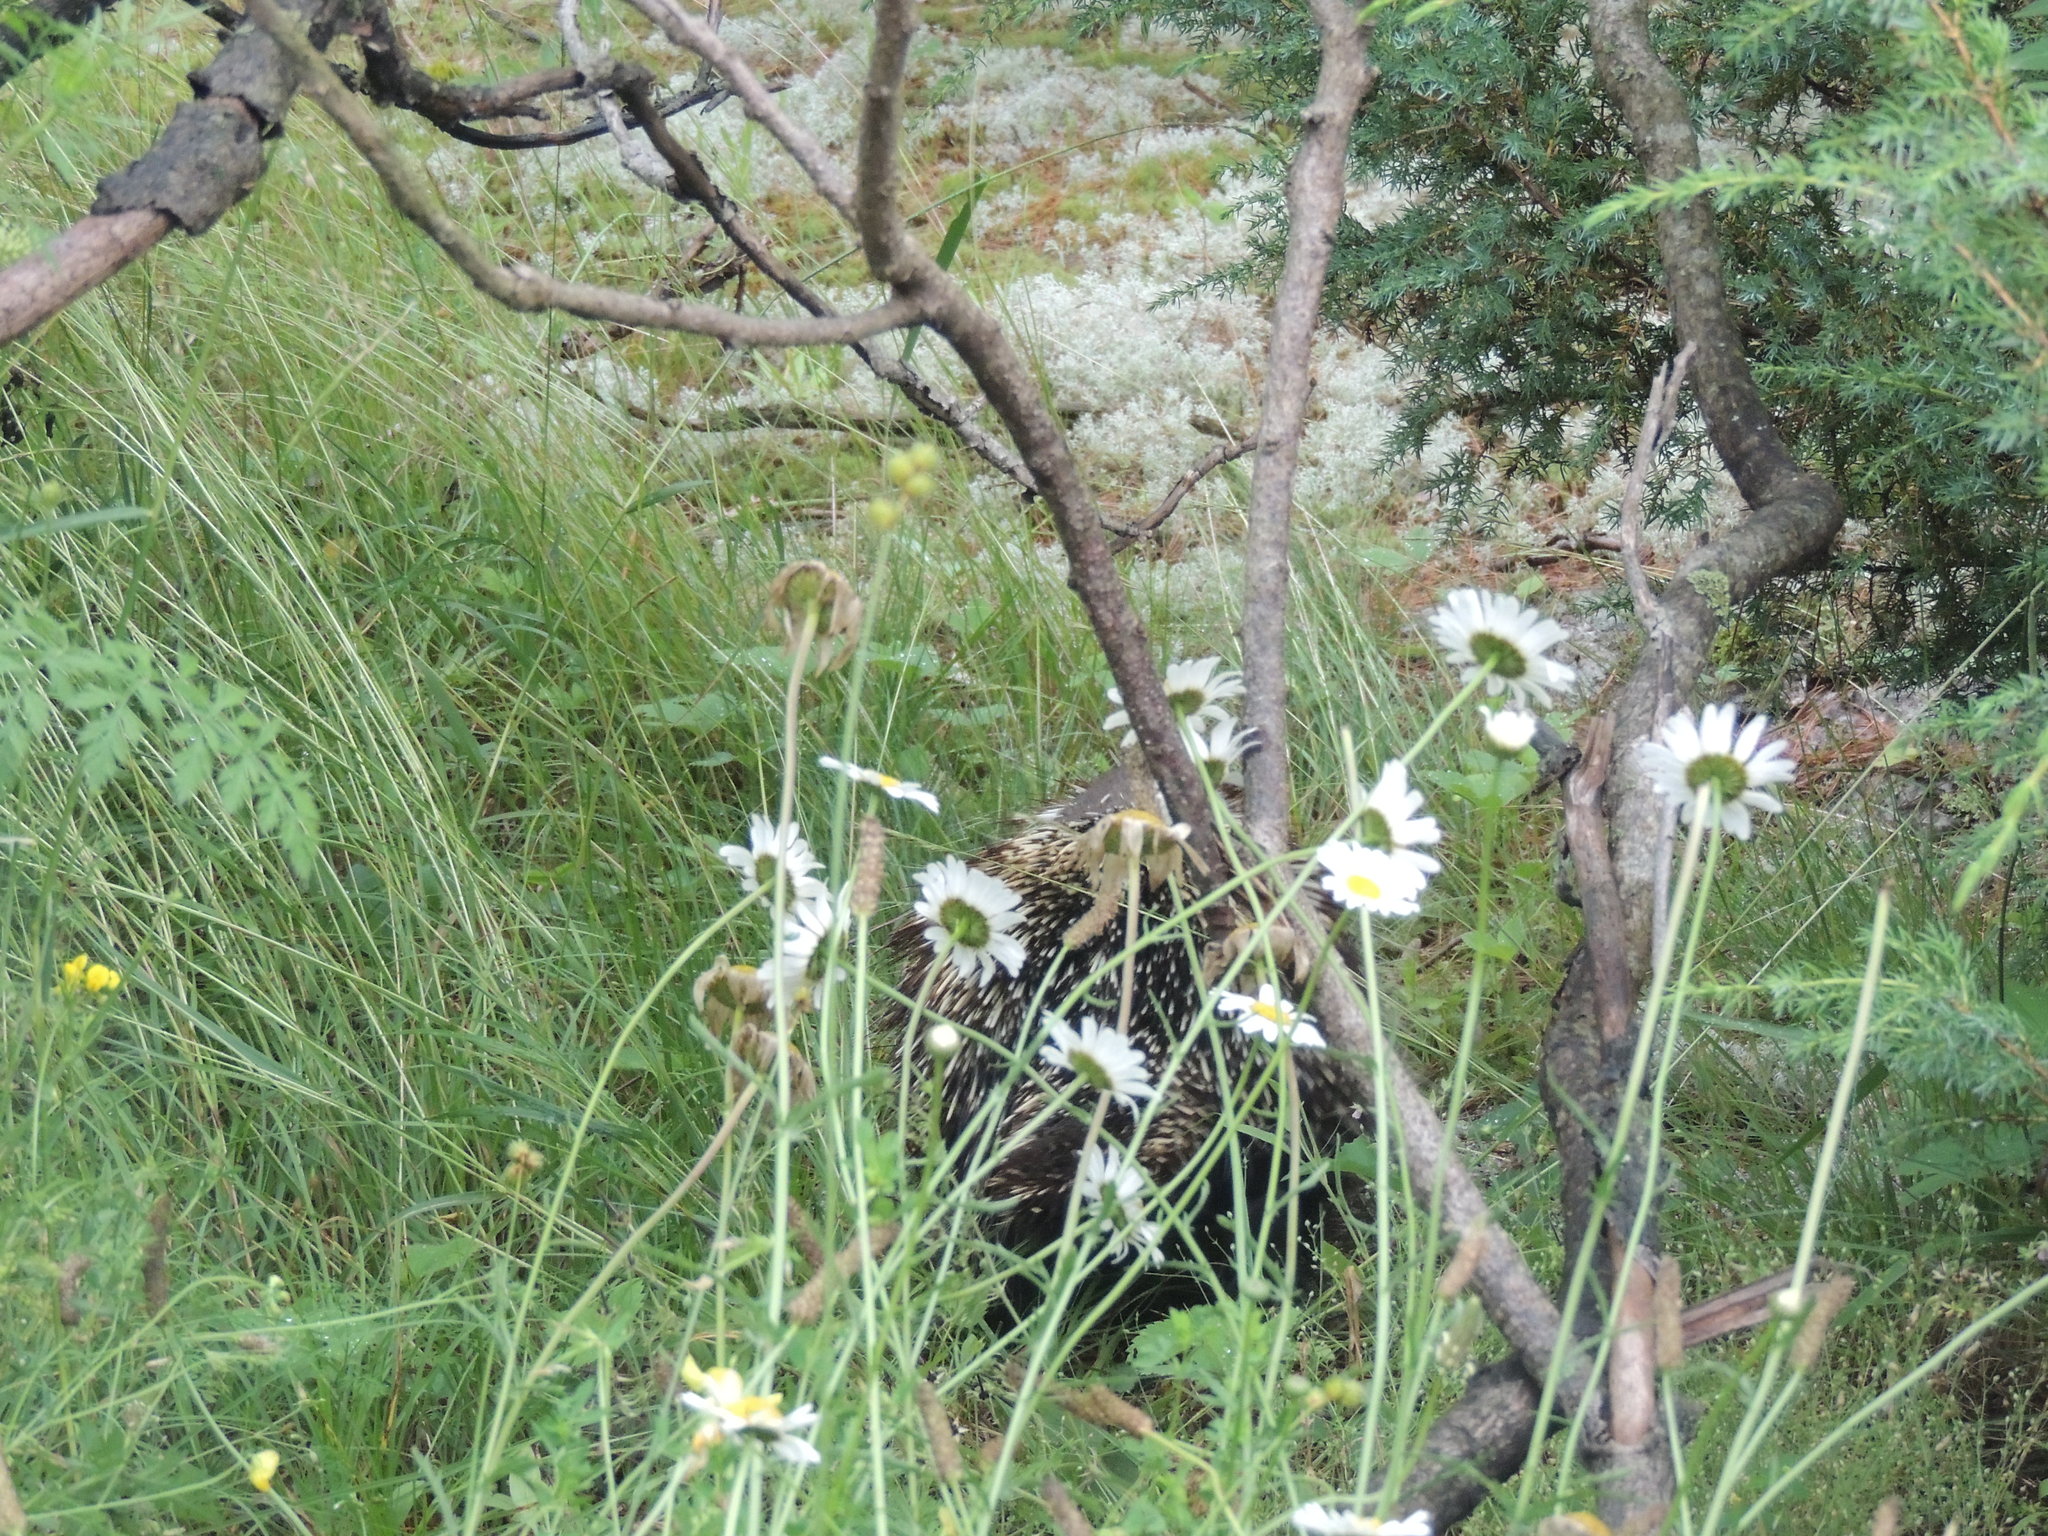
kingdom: Animalia
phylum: Chordata
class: Mammalia
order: Rodentia
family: Erethizontidae
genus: Erethizon
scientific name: Erethizon dorsatus
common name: North american porcupine
